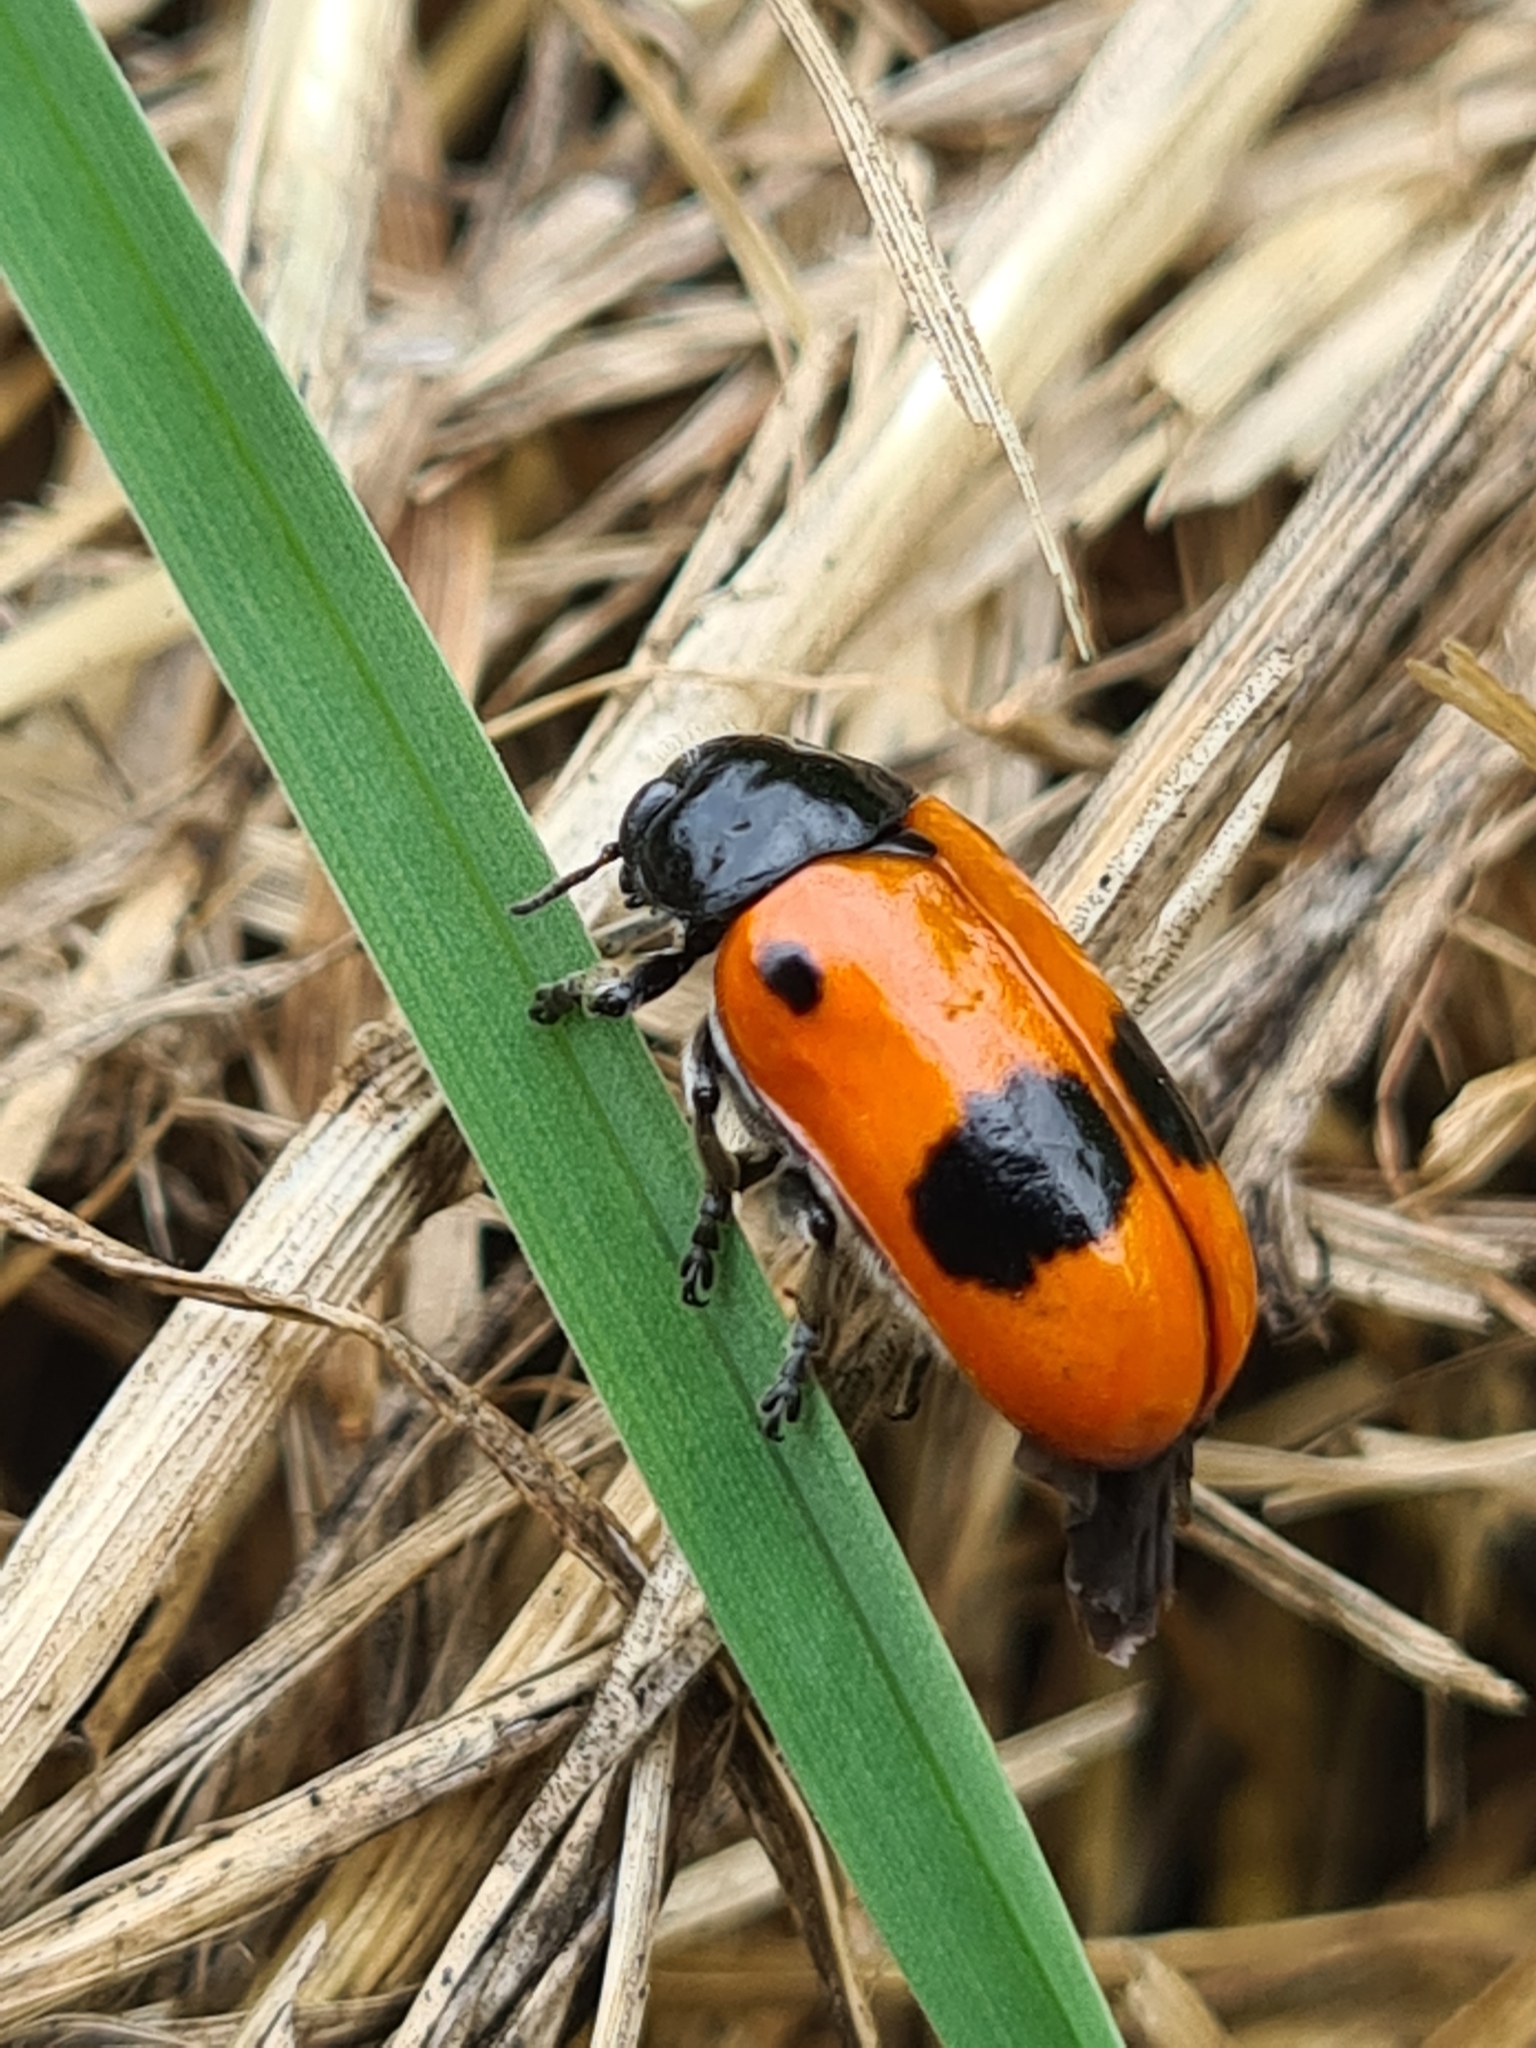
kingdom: Animalia
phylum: Arthropoda
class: Insecta
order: Coleoptera
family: Chrysomelidae
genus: Clytra
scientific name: Clytra laeviuscula
